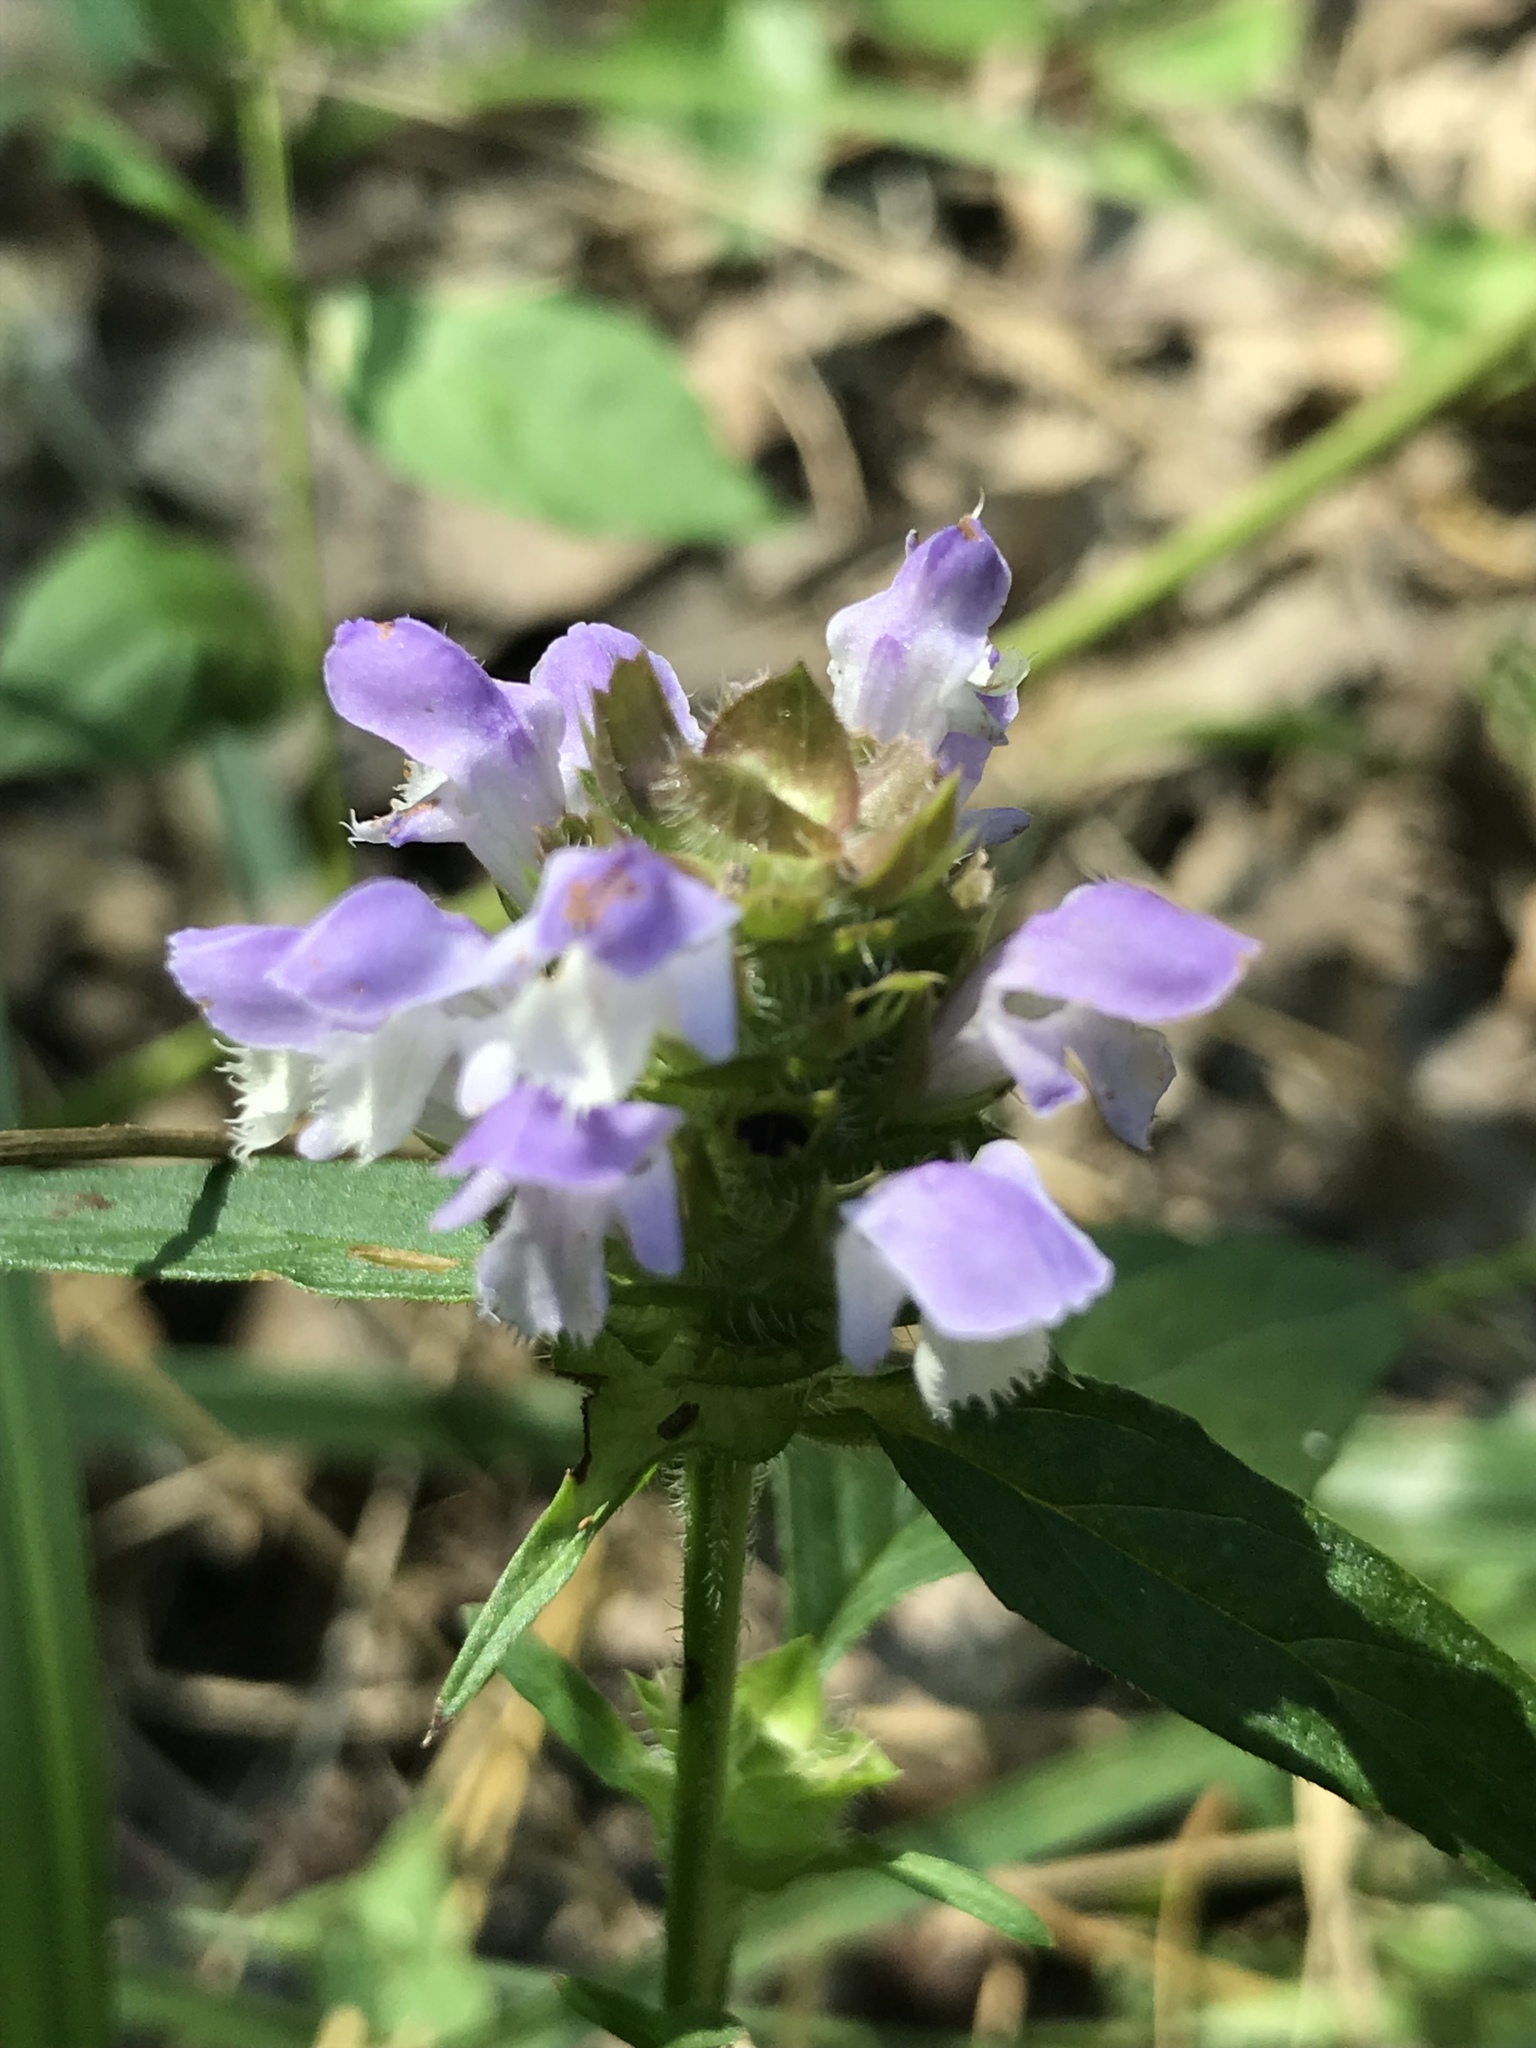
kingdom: Plantae
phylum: Tracheophyta
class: Magnoliopsida
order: Lamiales
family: Lamiaceae
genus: Prunella
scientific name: Prunella vulgaris
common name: Heal-all
